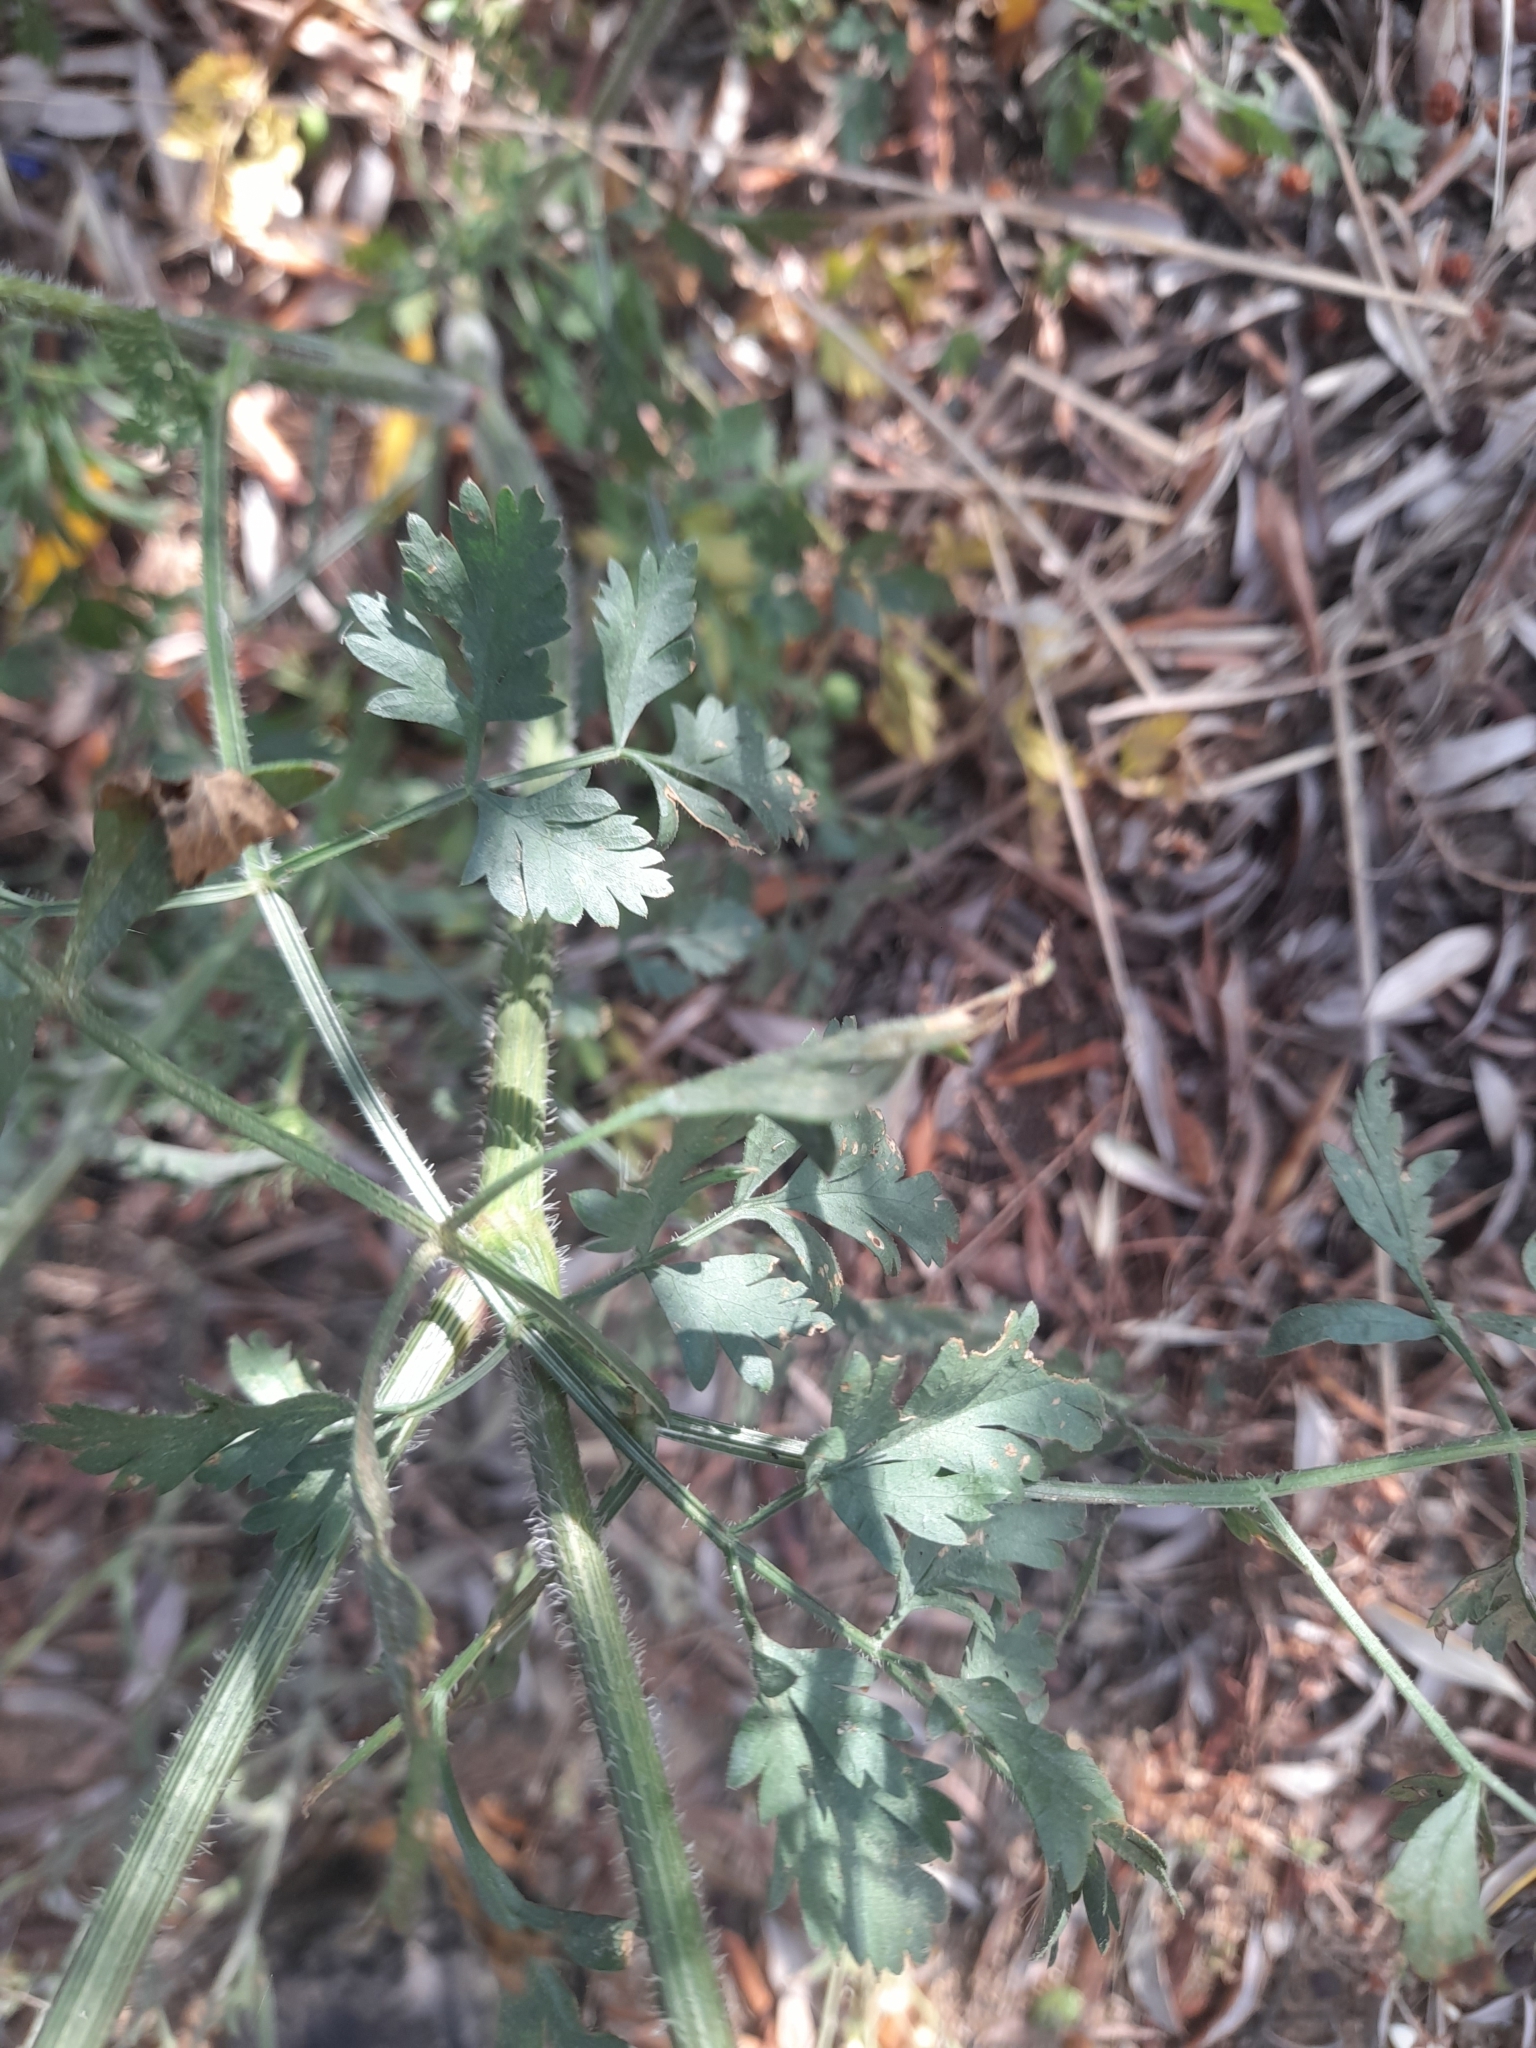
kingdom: Plantae
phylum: Tracheophyta
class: Magnoliopsida
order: Apiales
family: Apiaceae
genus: Daucus
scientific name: Daucus carota
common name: Wild carrot
